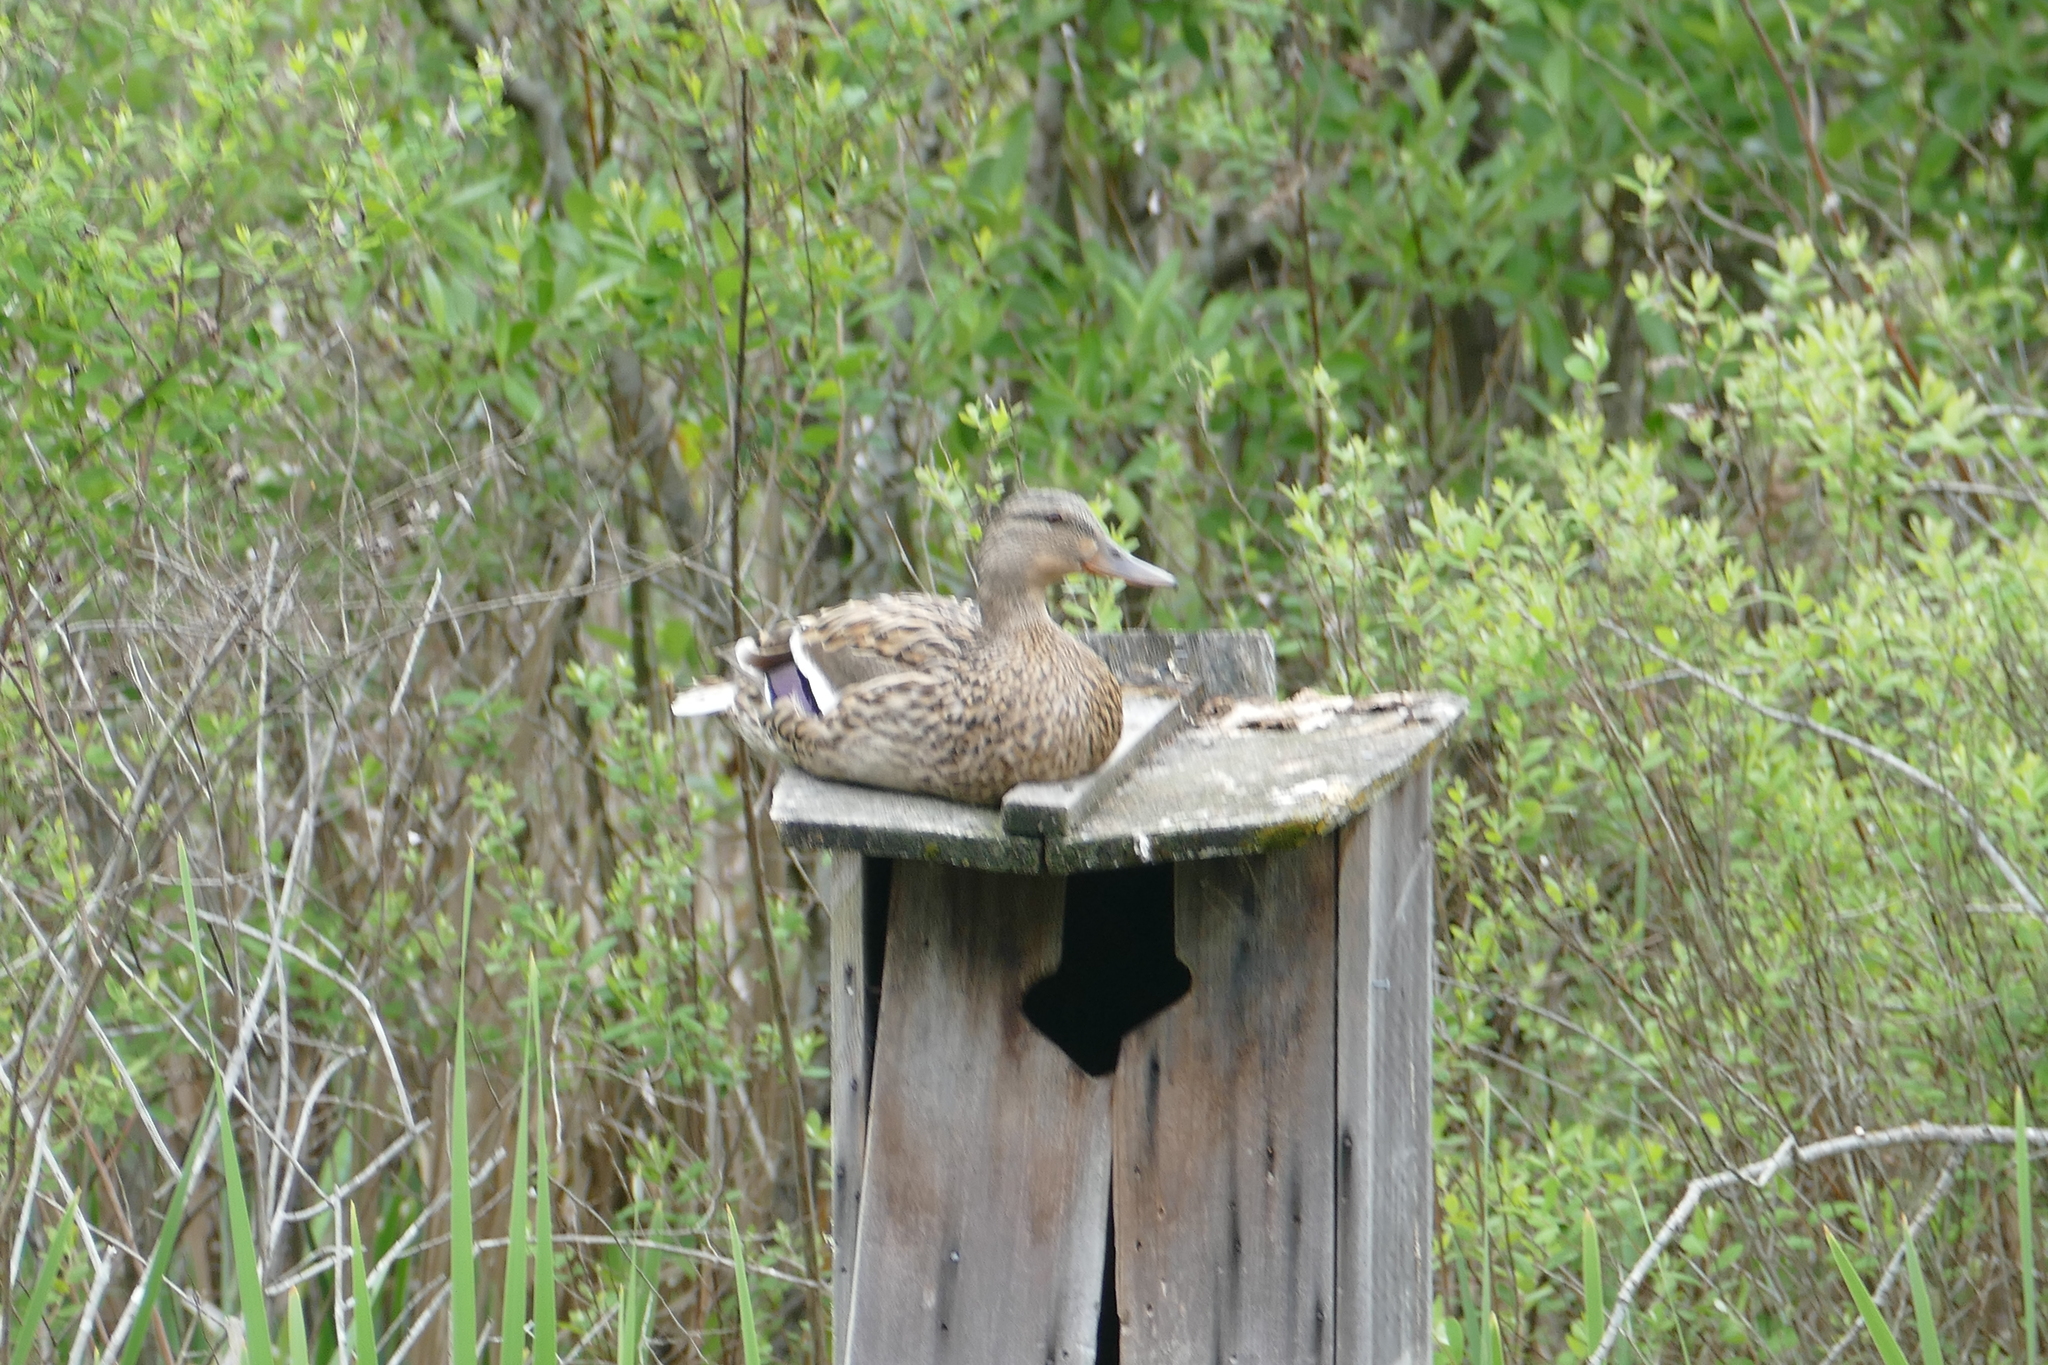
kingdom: Animalia
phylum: Chordata
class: Aves
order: Anseriformes
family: Anatidae
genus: Anas
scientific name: Anas platyrhynchos
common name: Mallard
